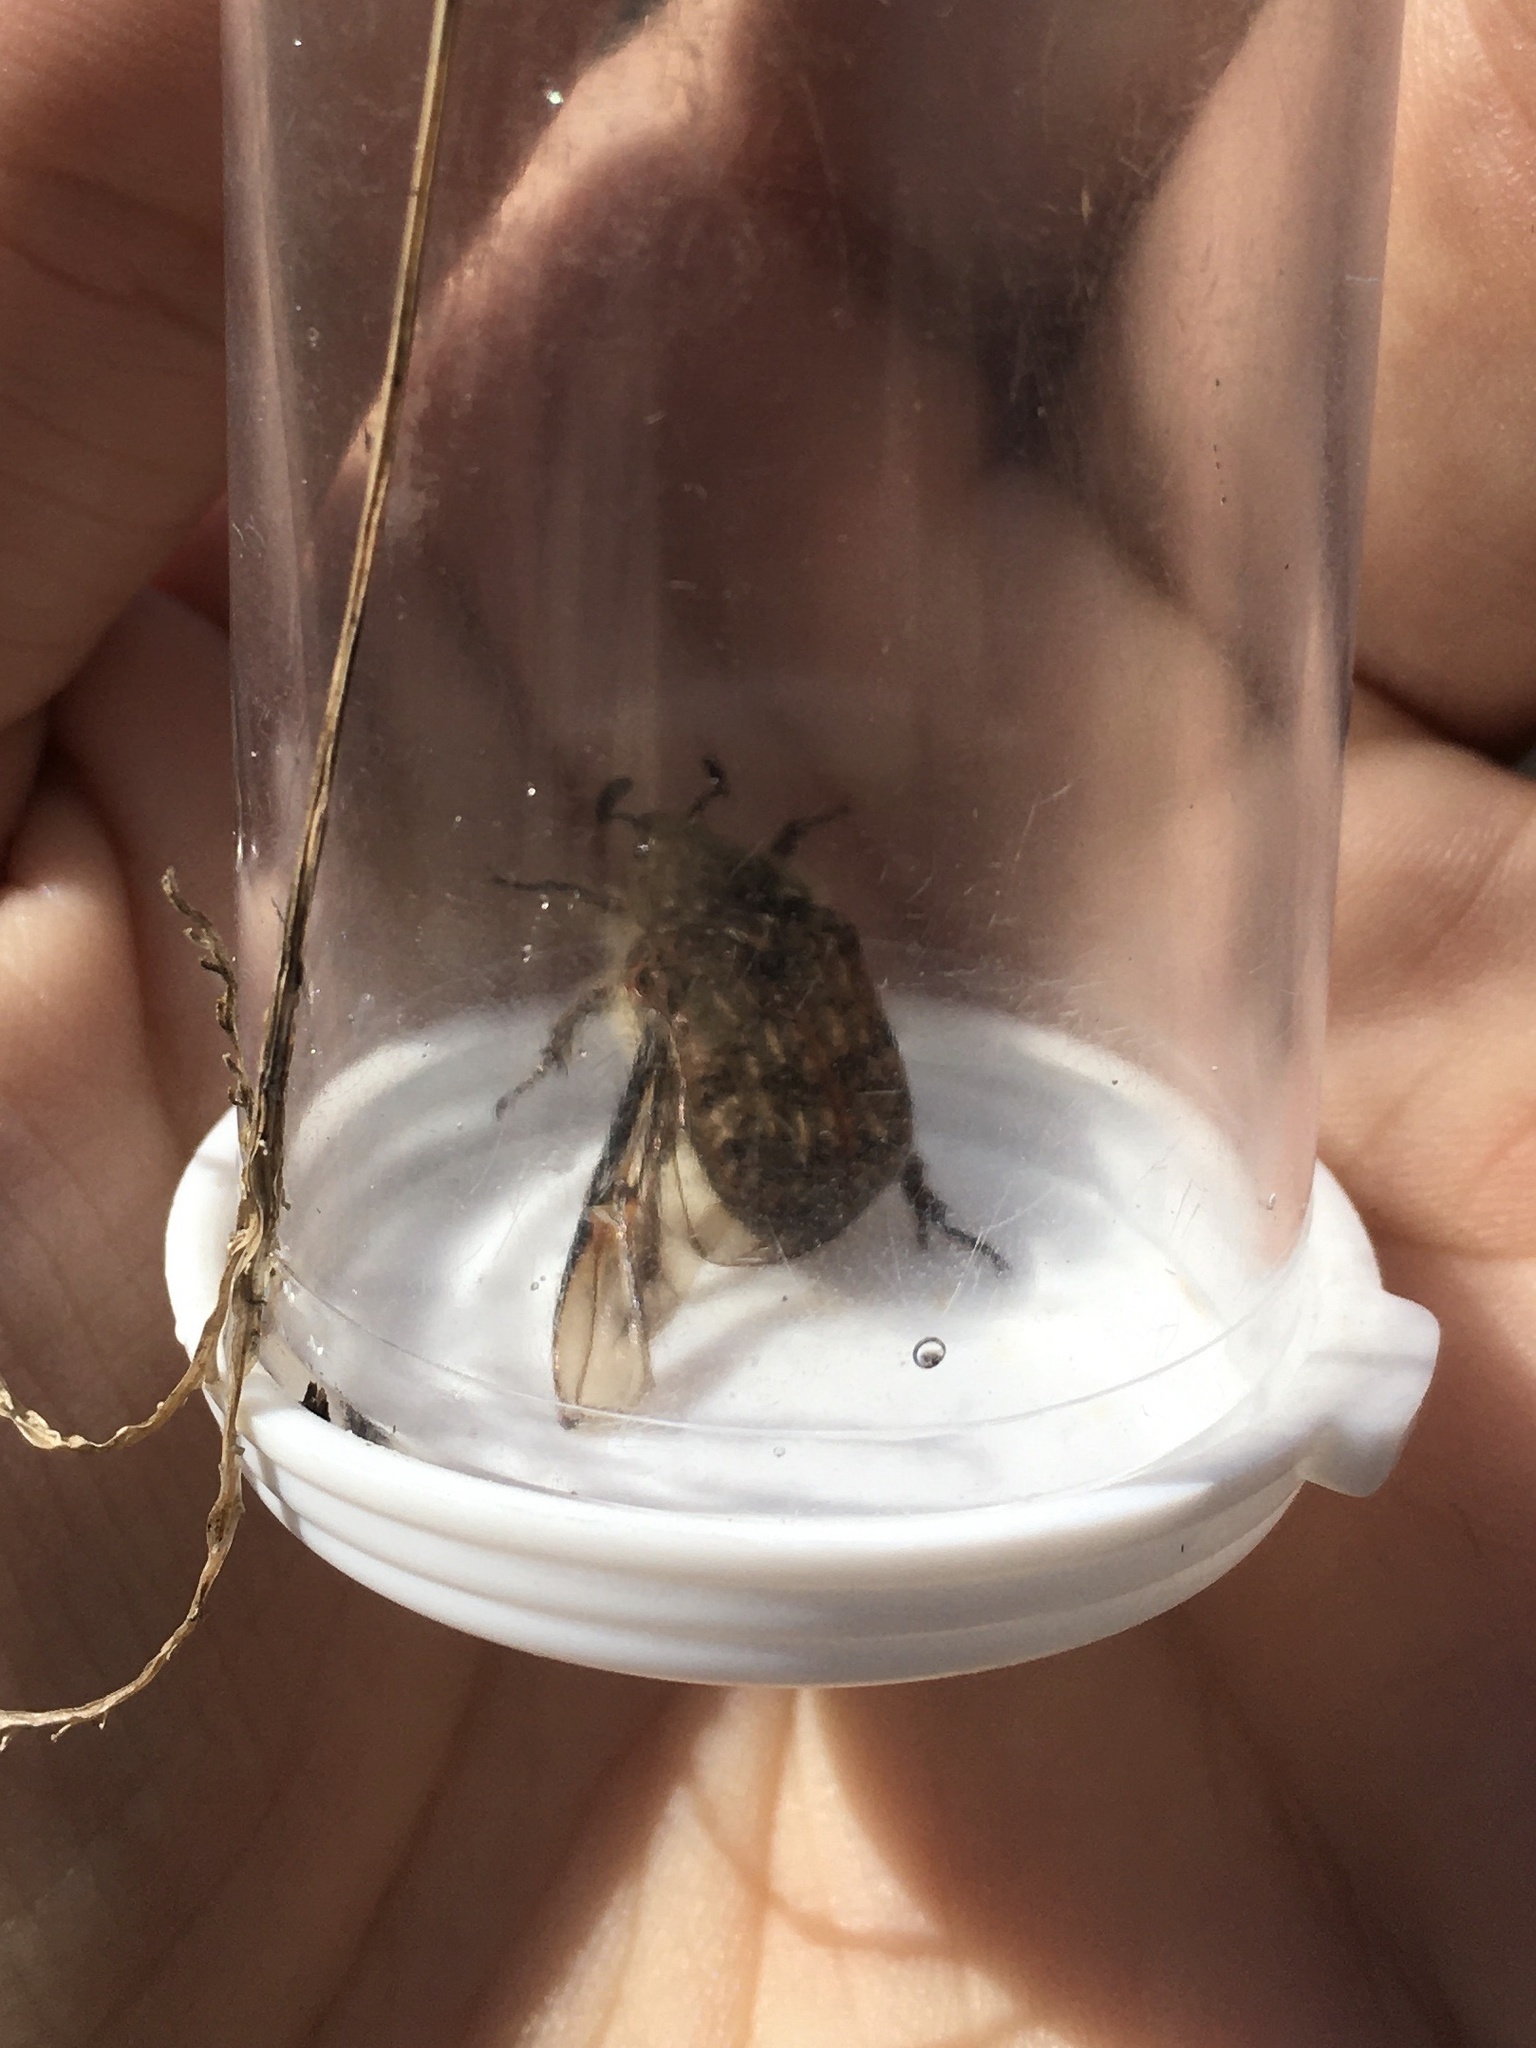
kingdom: Animalia
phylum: Arthropoda
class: Insecta
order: Coleoptera
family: Scarabaeidae
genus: Euphoria
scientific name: Euphoria inda
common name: Bumble flower beetle
